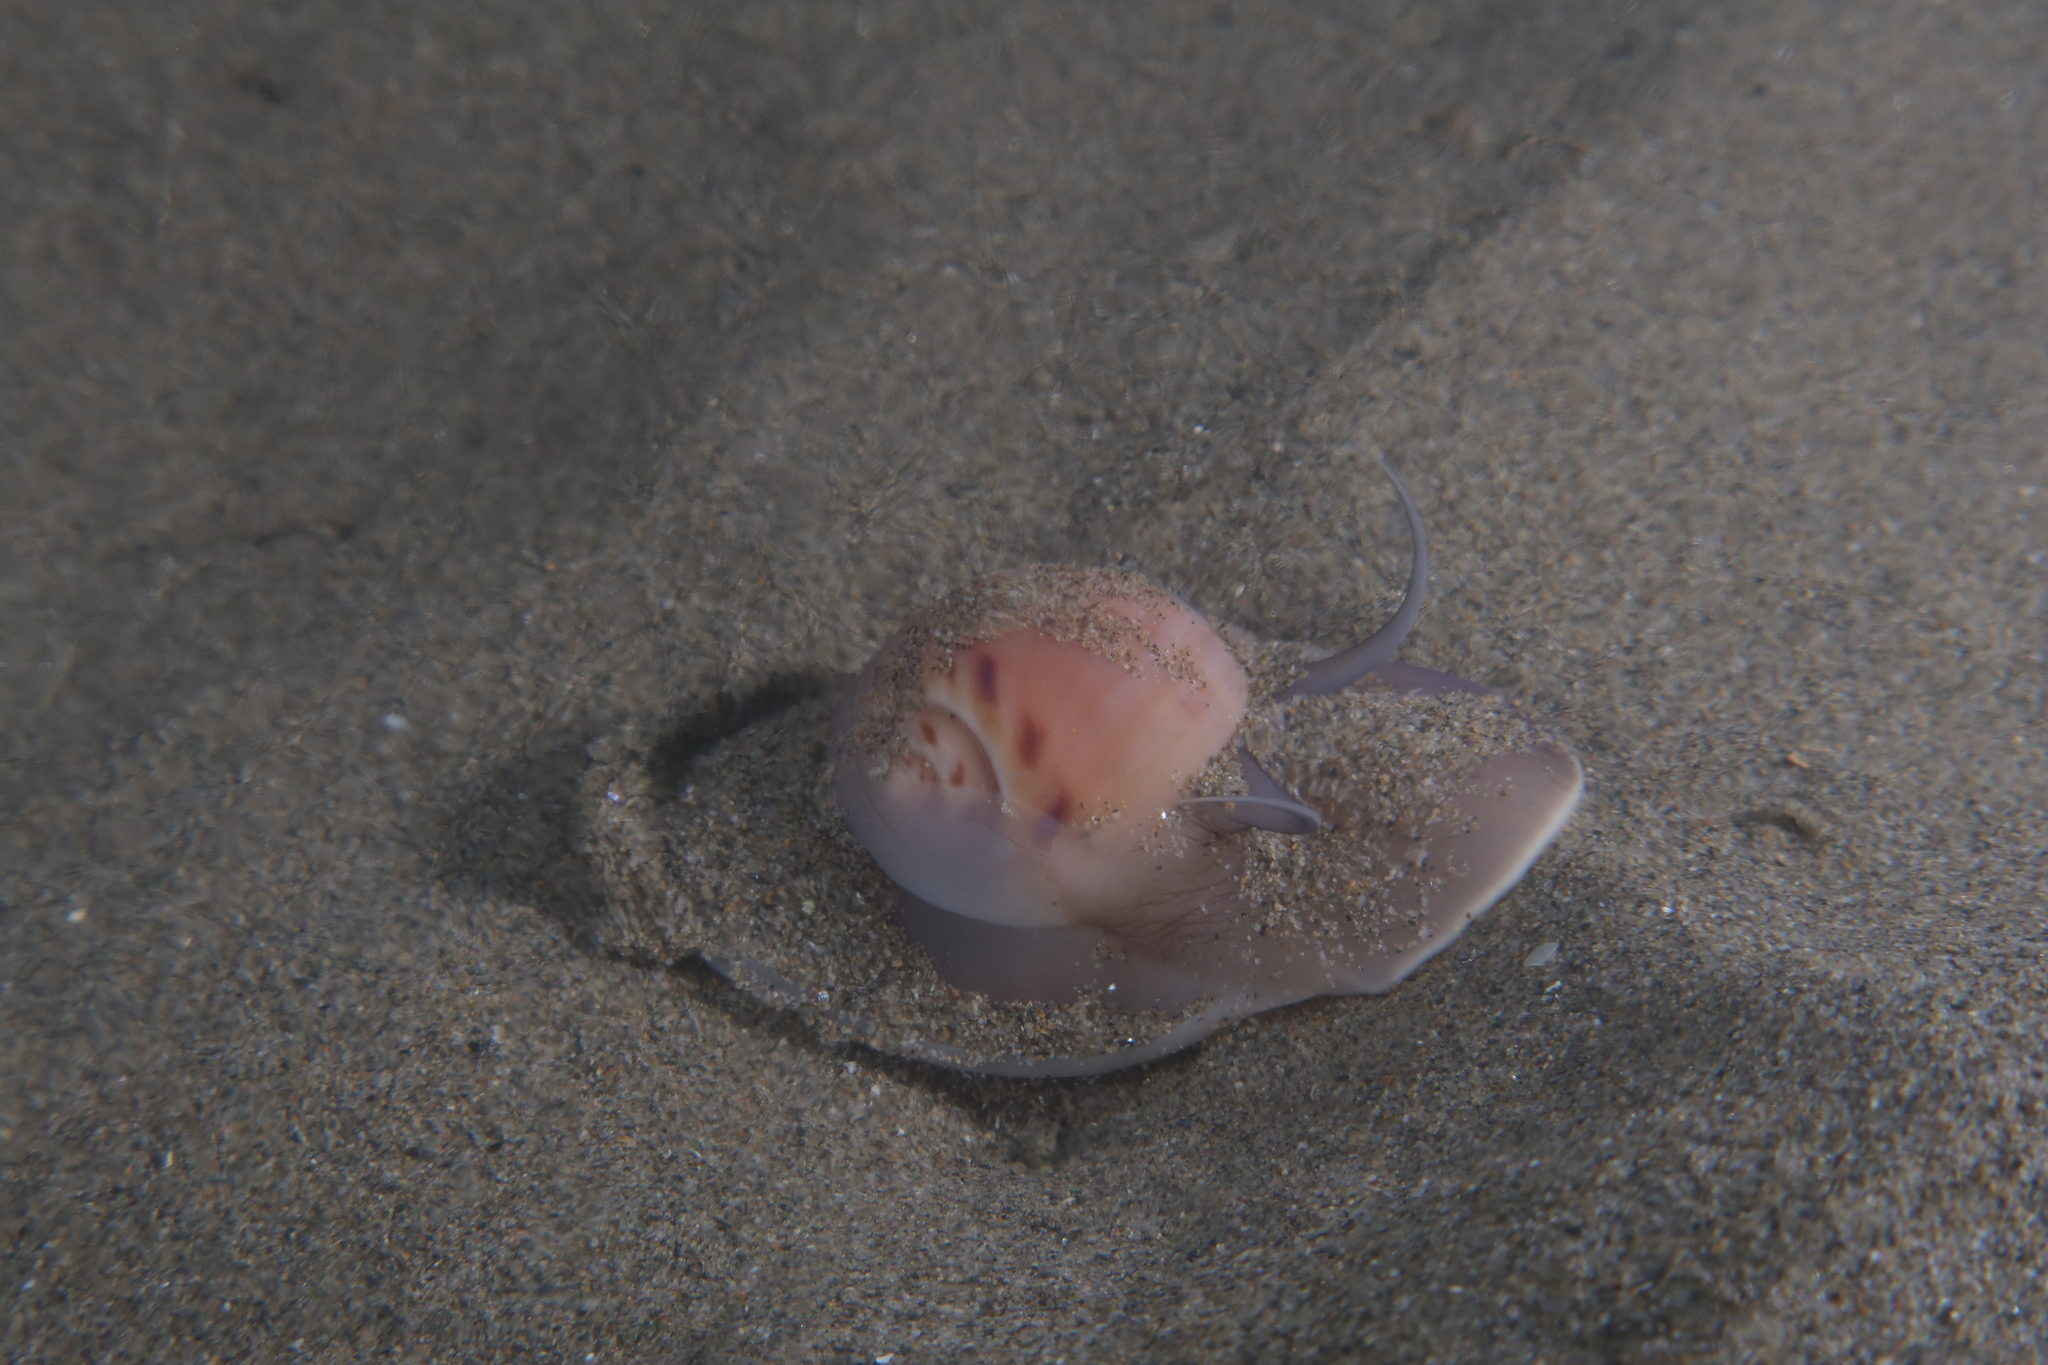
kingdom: Animalia
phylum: Mollusca
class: Gastropoda
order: Littorinimorpha
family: Naticidae
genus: Euspira
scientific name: Euspira catena
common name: Necklace shell
